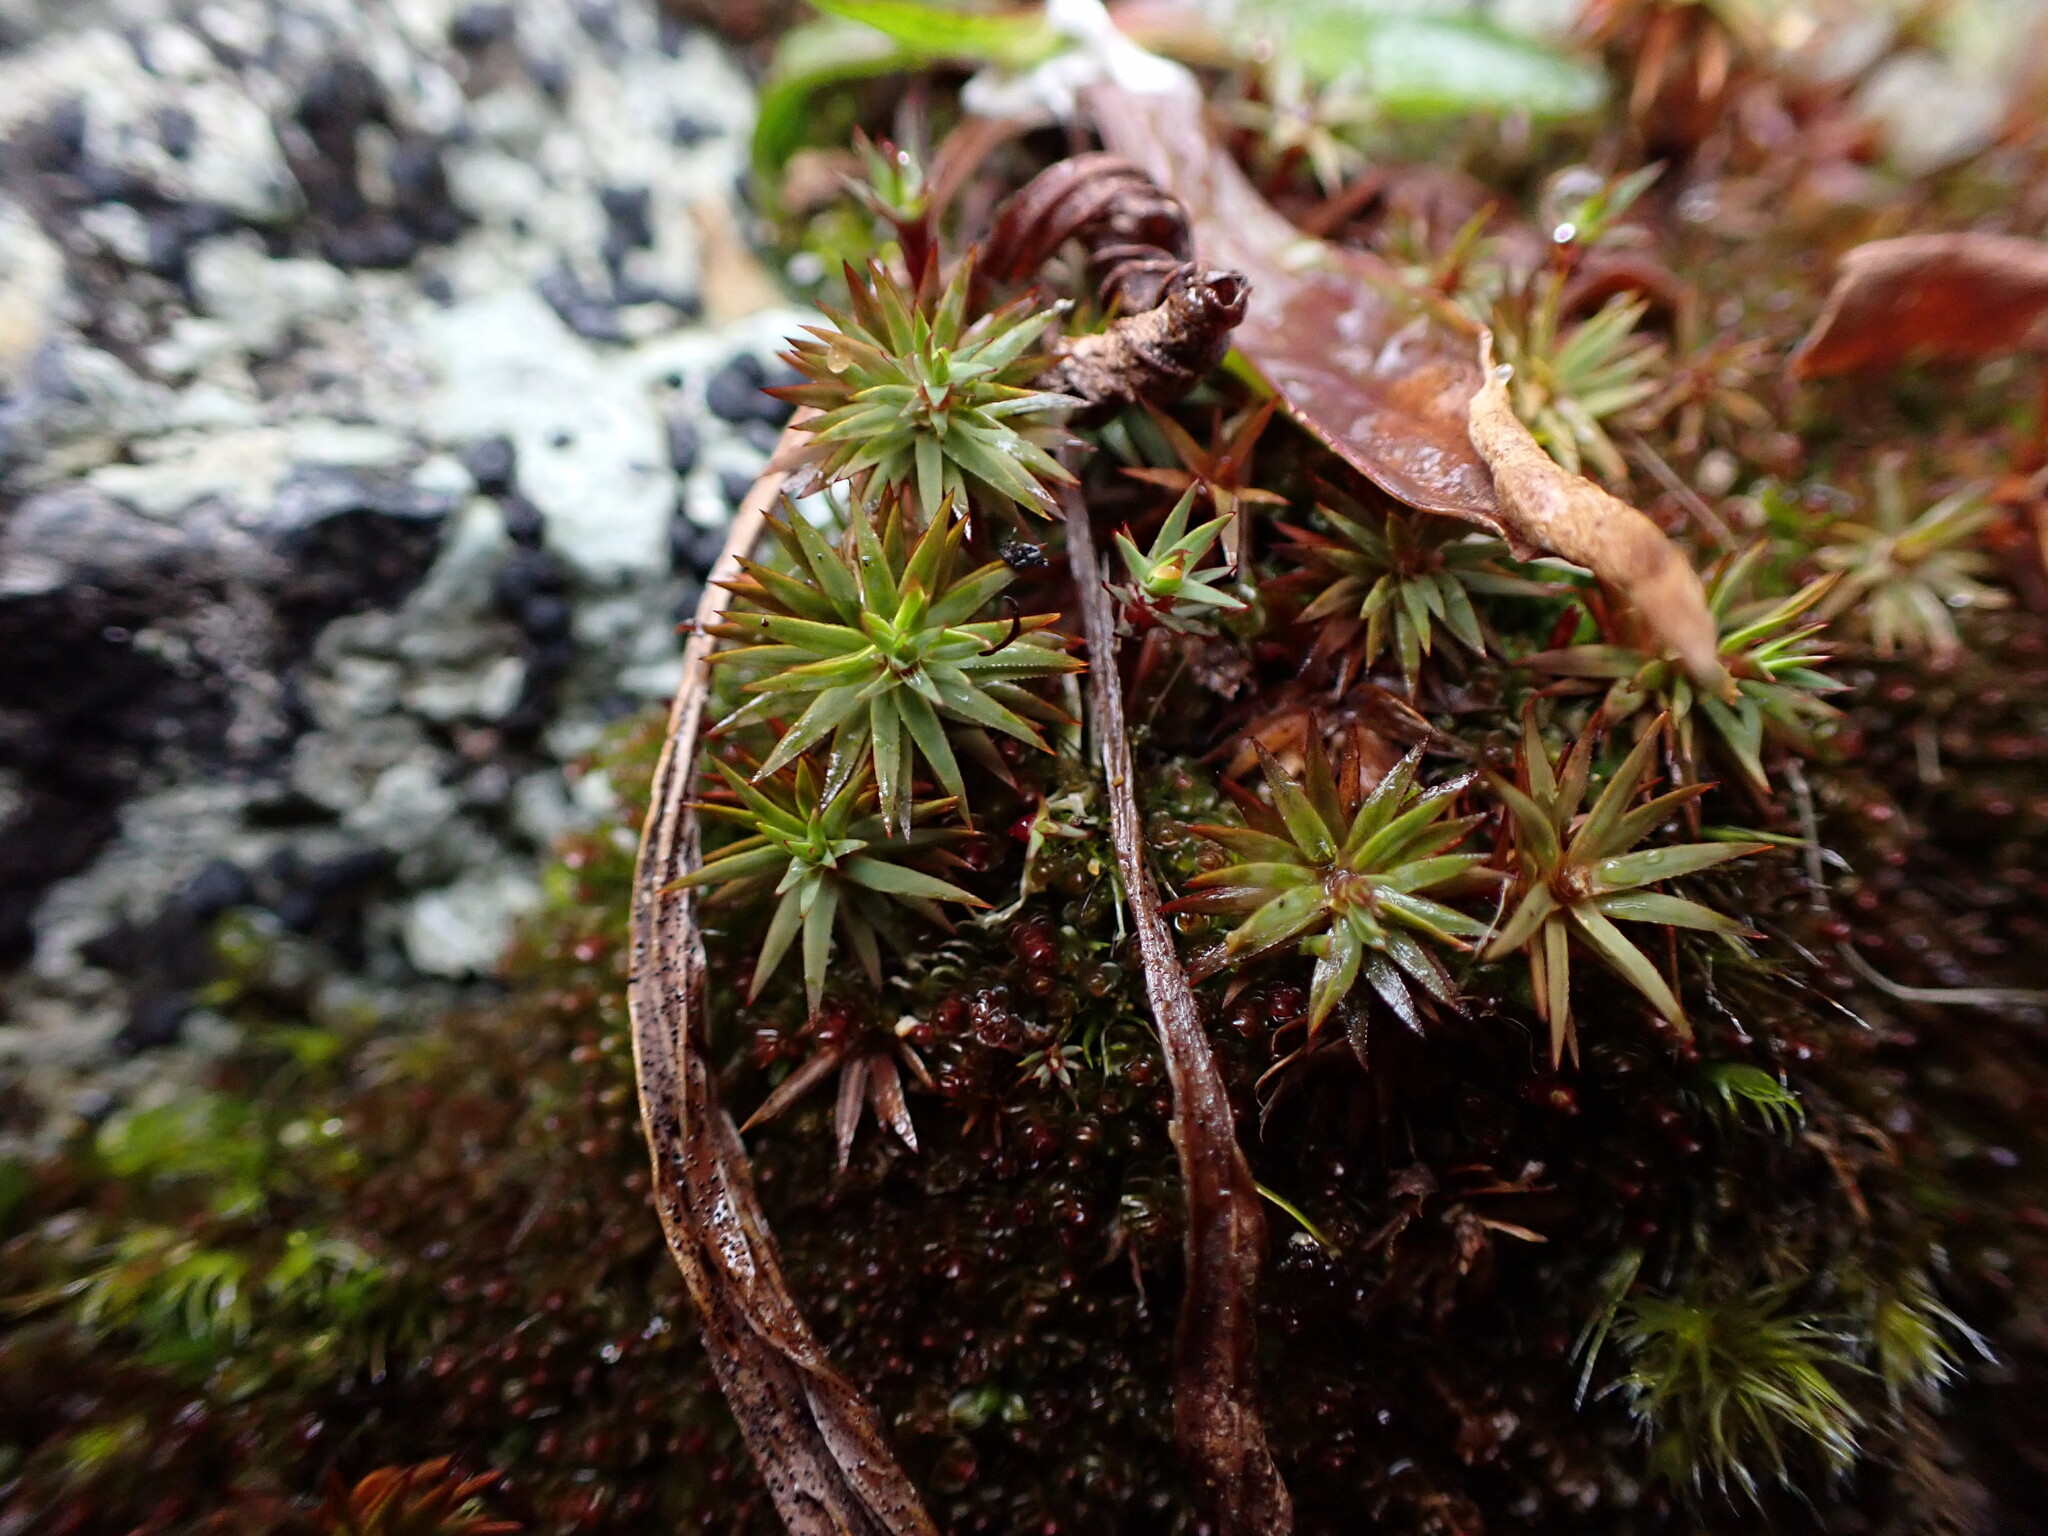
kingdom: Plantae
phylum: Bryophyta
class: Polytrichopsida
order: Polytrichales
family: Polytrichaceae
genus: Pogonatum
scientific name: Pogonatum urnigerum
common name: Urn hair moss
